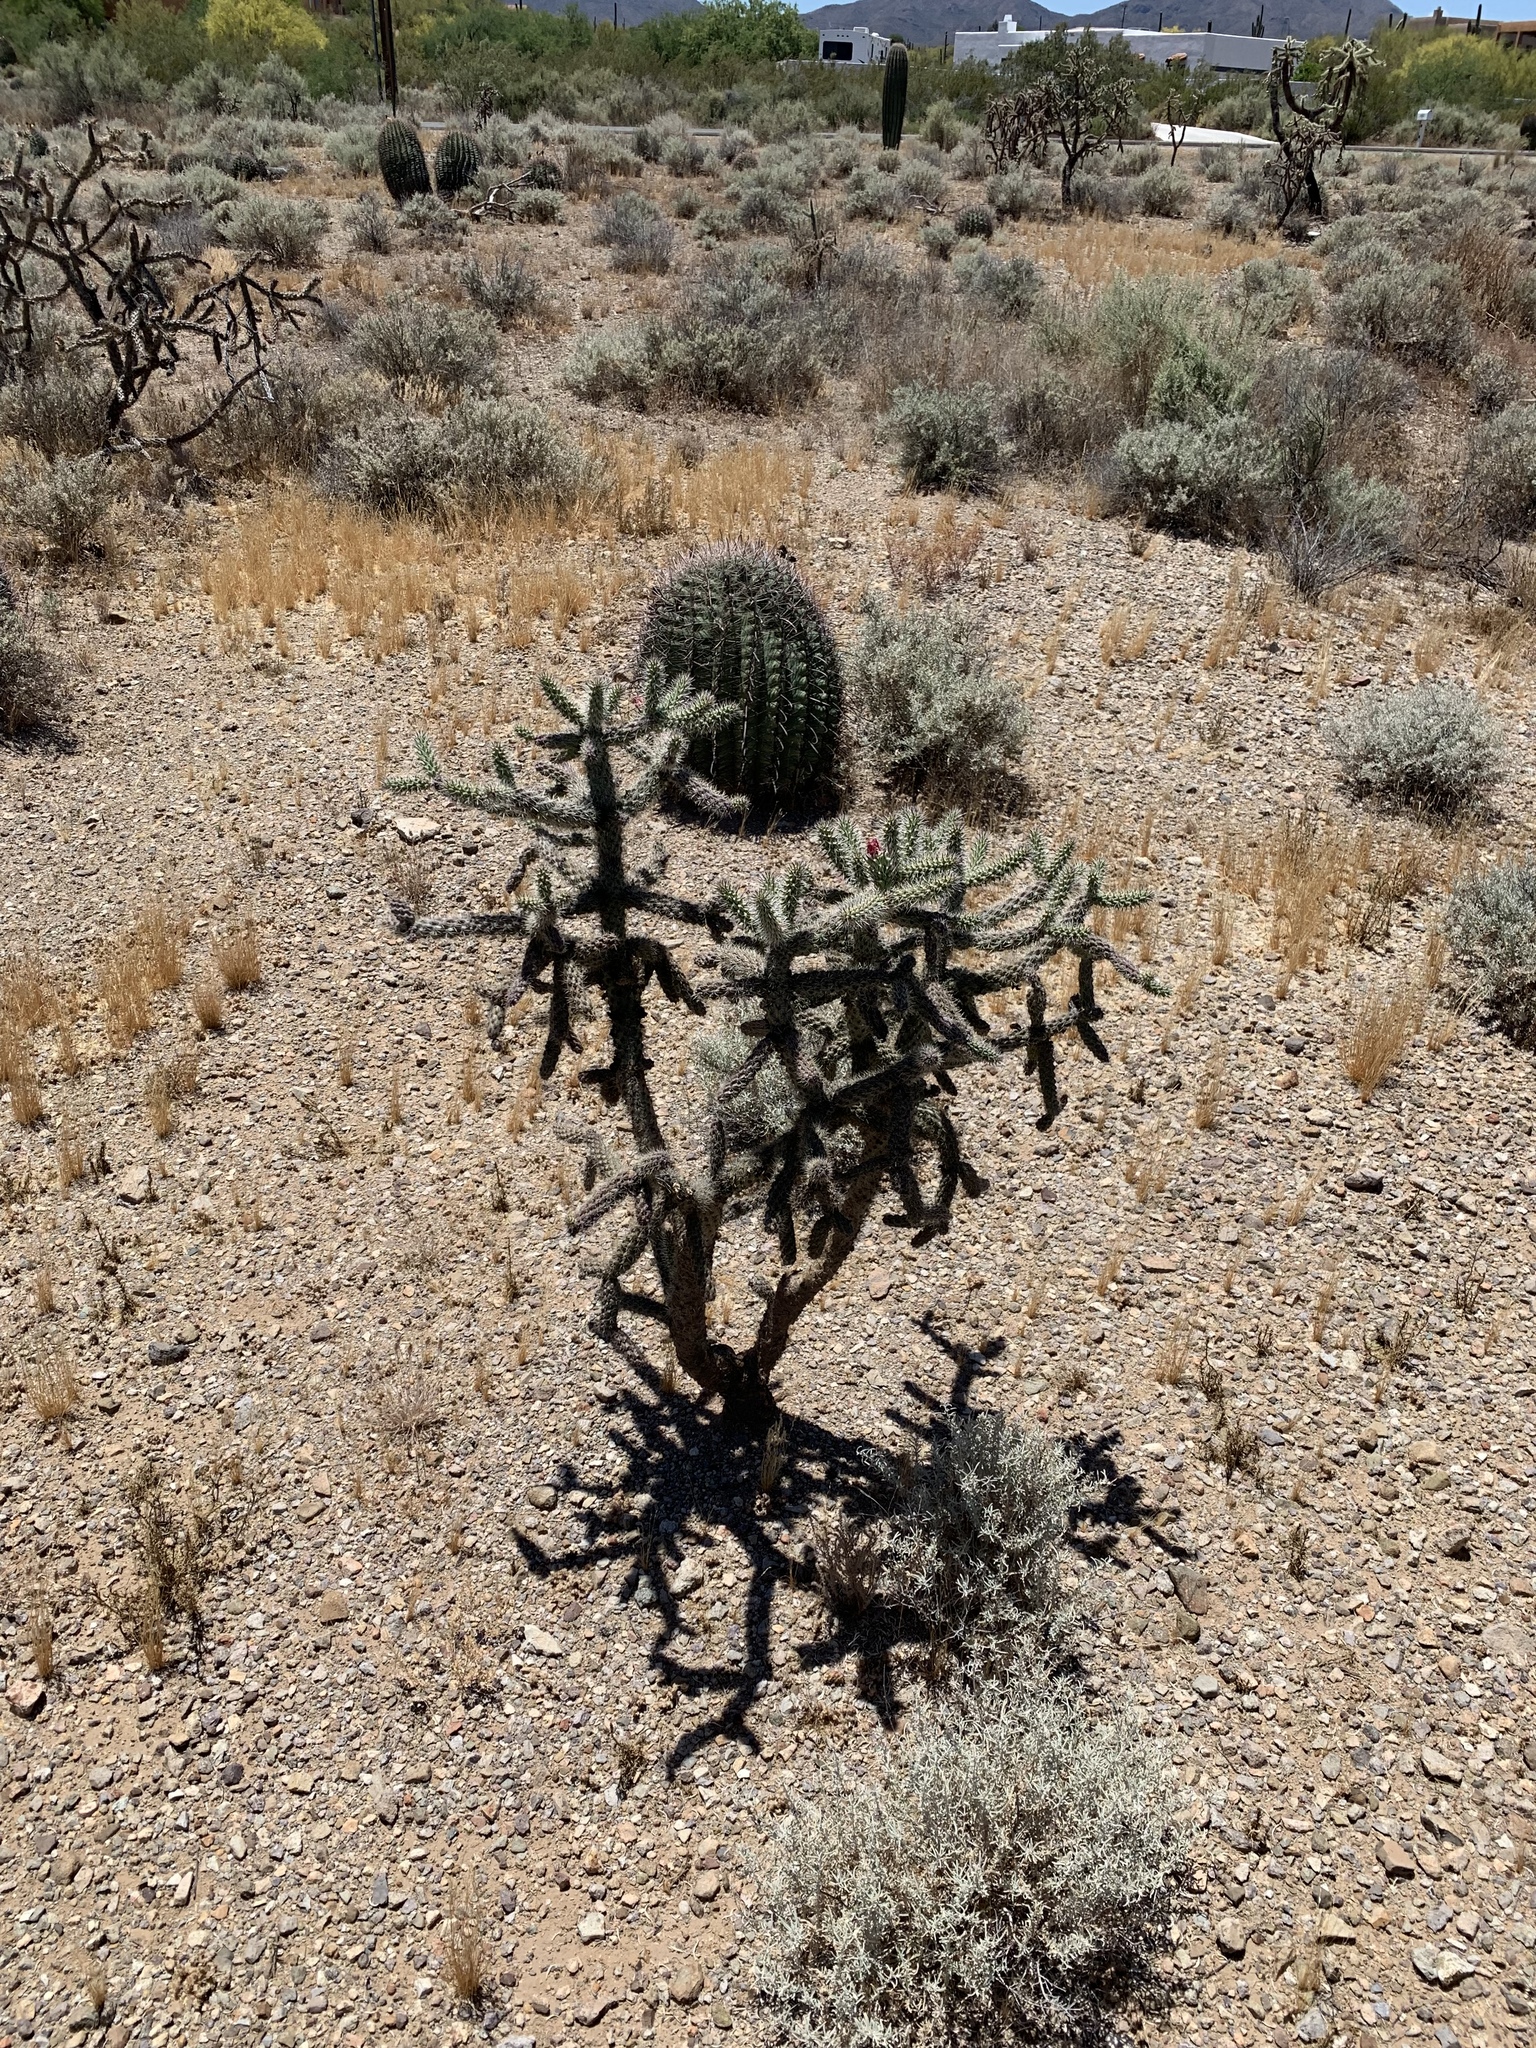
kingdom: Plantae
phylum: Tracheophyta
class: Magnoliopsida
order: Caryophyllales
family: Cactaceae
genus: Cylindropuntia
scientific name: Cylindropuntia imbricata
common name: Candelabrum cactus
